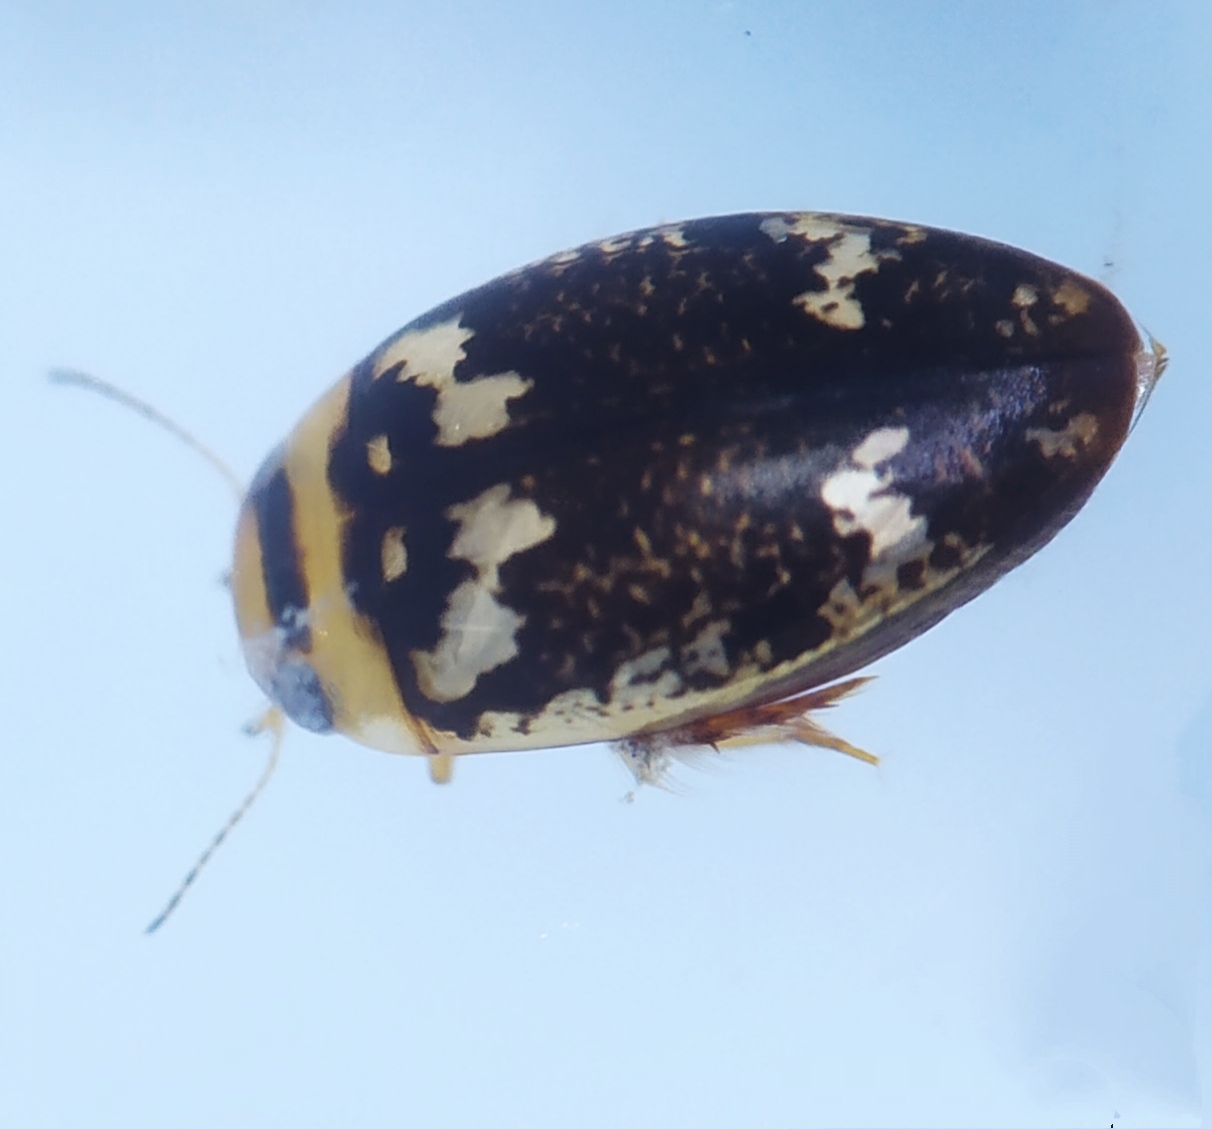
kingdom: Animalia
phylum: Arthropoda
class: Insecta
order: Coleoptera
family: Dytiscidae
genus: Laccophilus
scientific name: Laccophilus poecilus
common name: Sussex diving beetle
